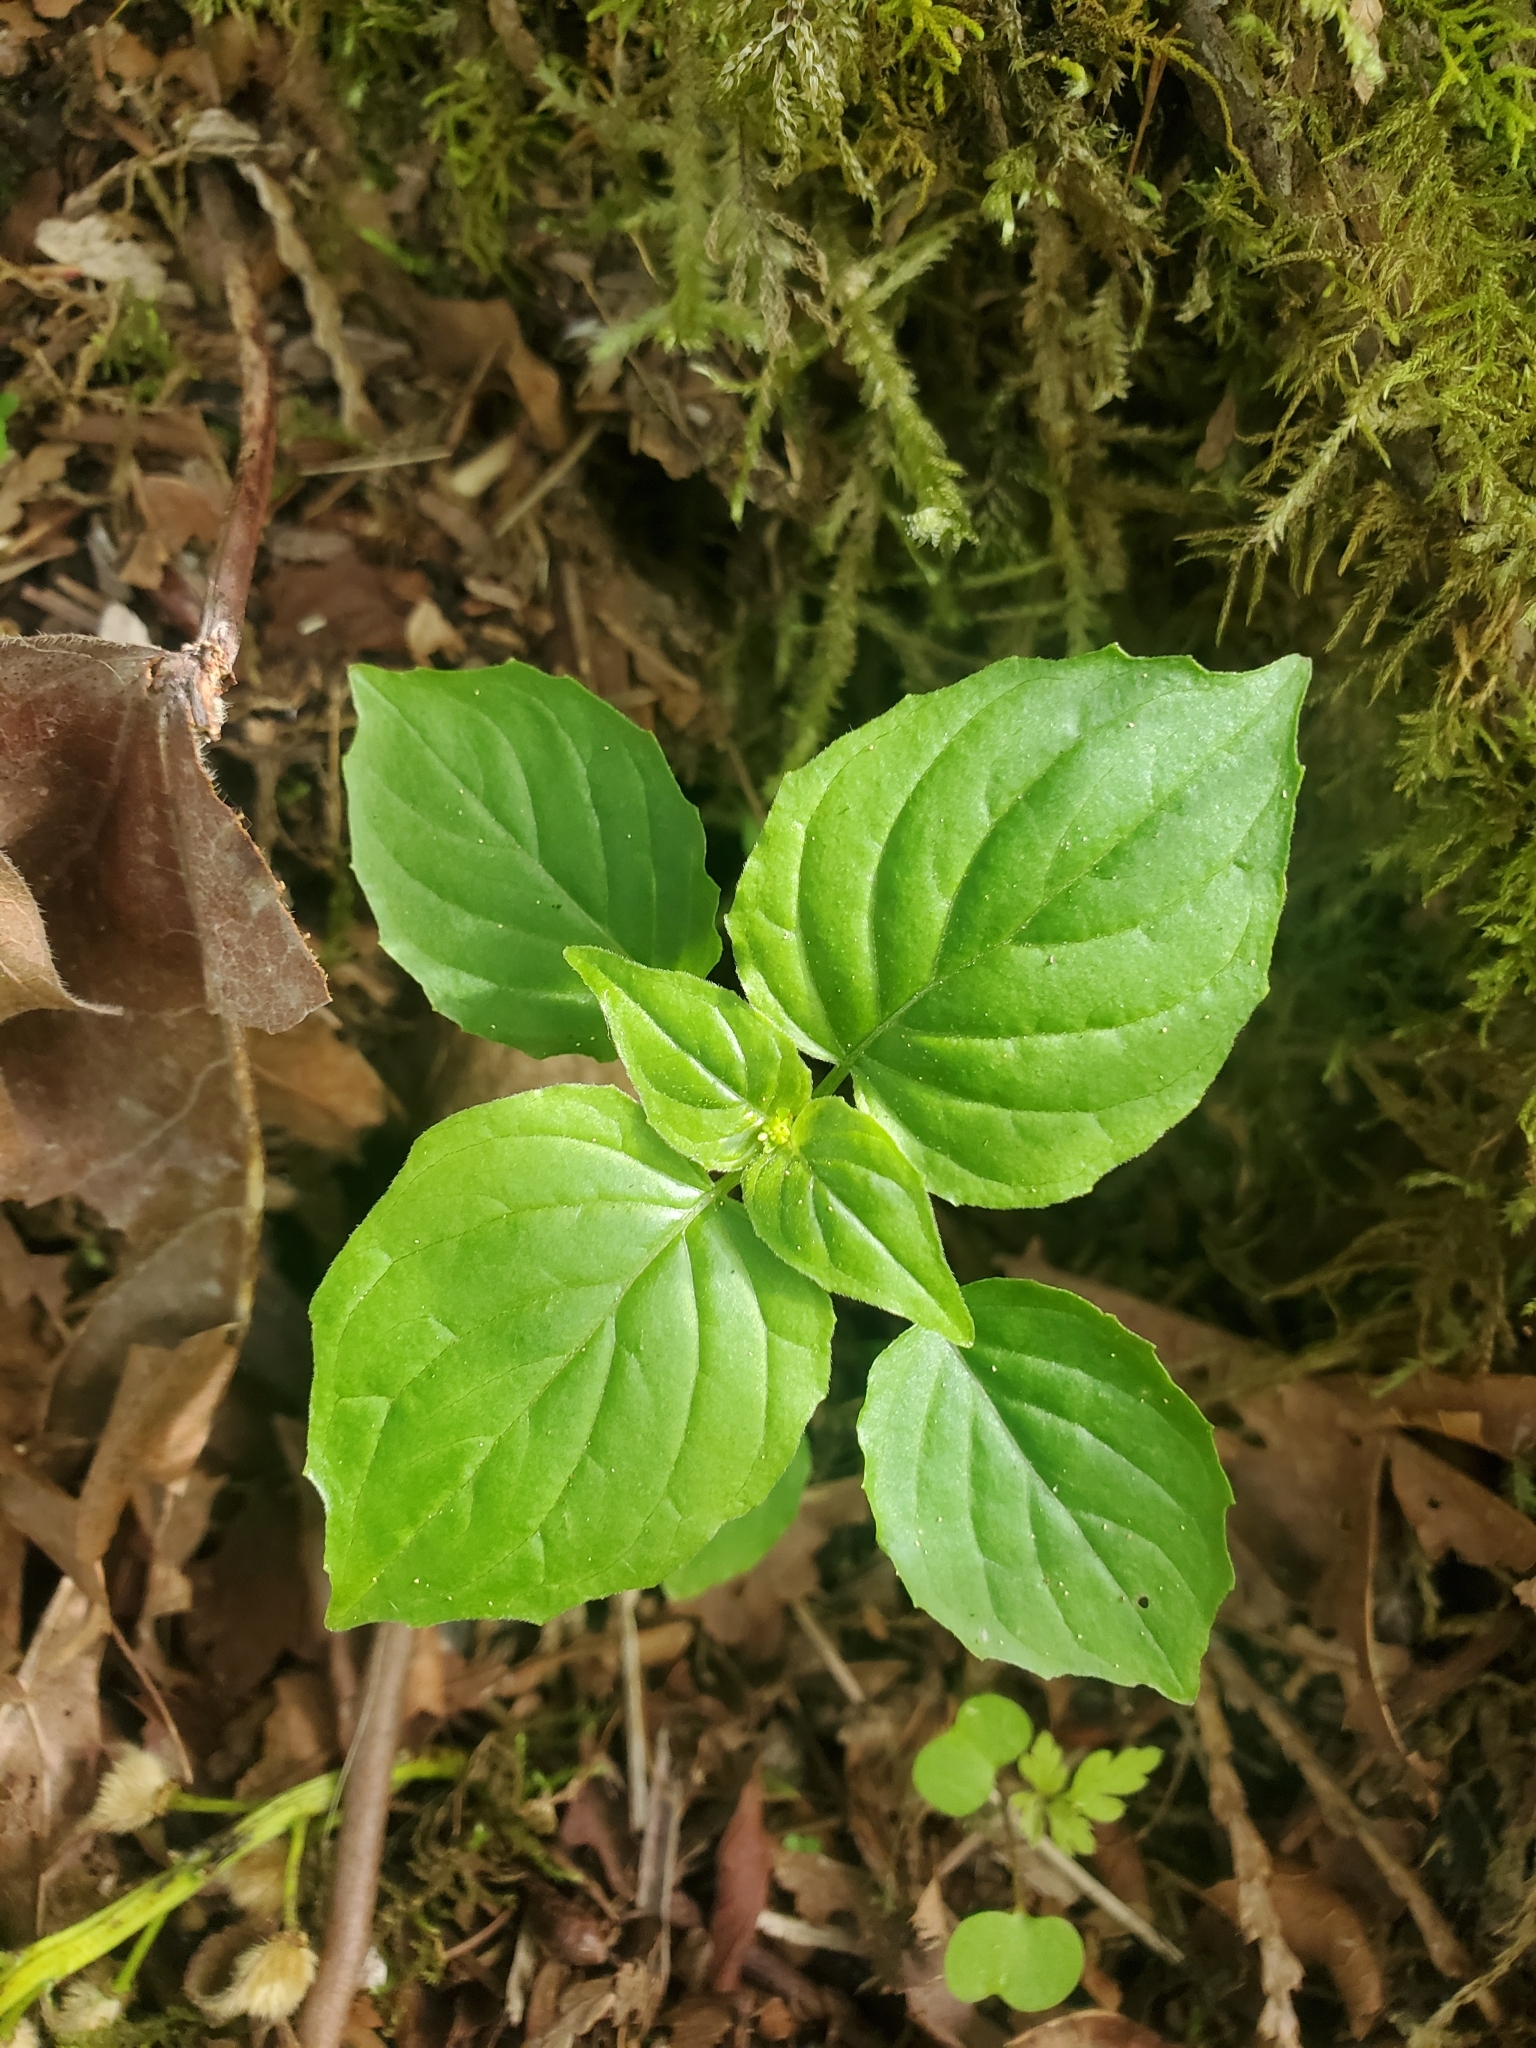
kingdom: Plantae
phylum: Tracheophyta
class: Magnoliopsida
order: Myrtales
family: Onagraceae
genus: Circaea
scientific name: Circaea alpina
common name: Alpine enchanter's-nightshade
